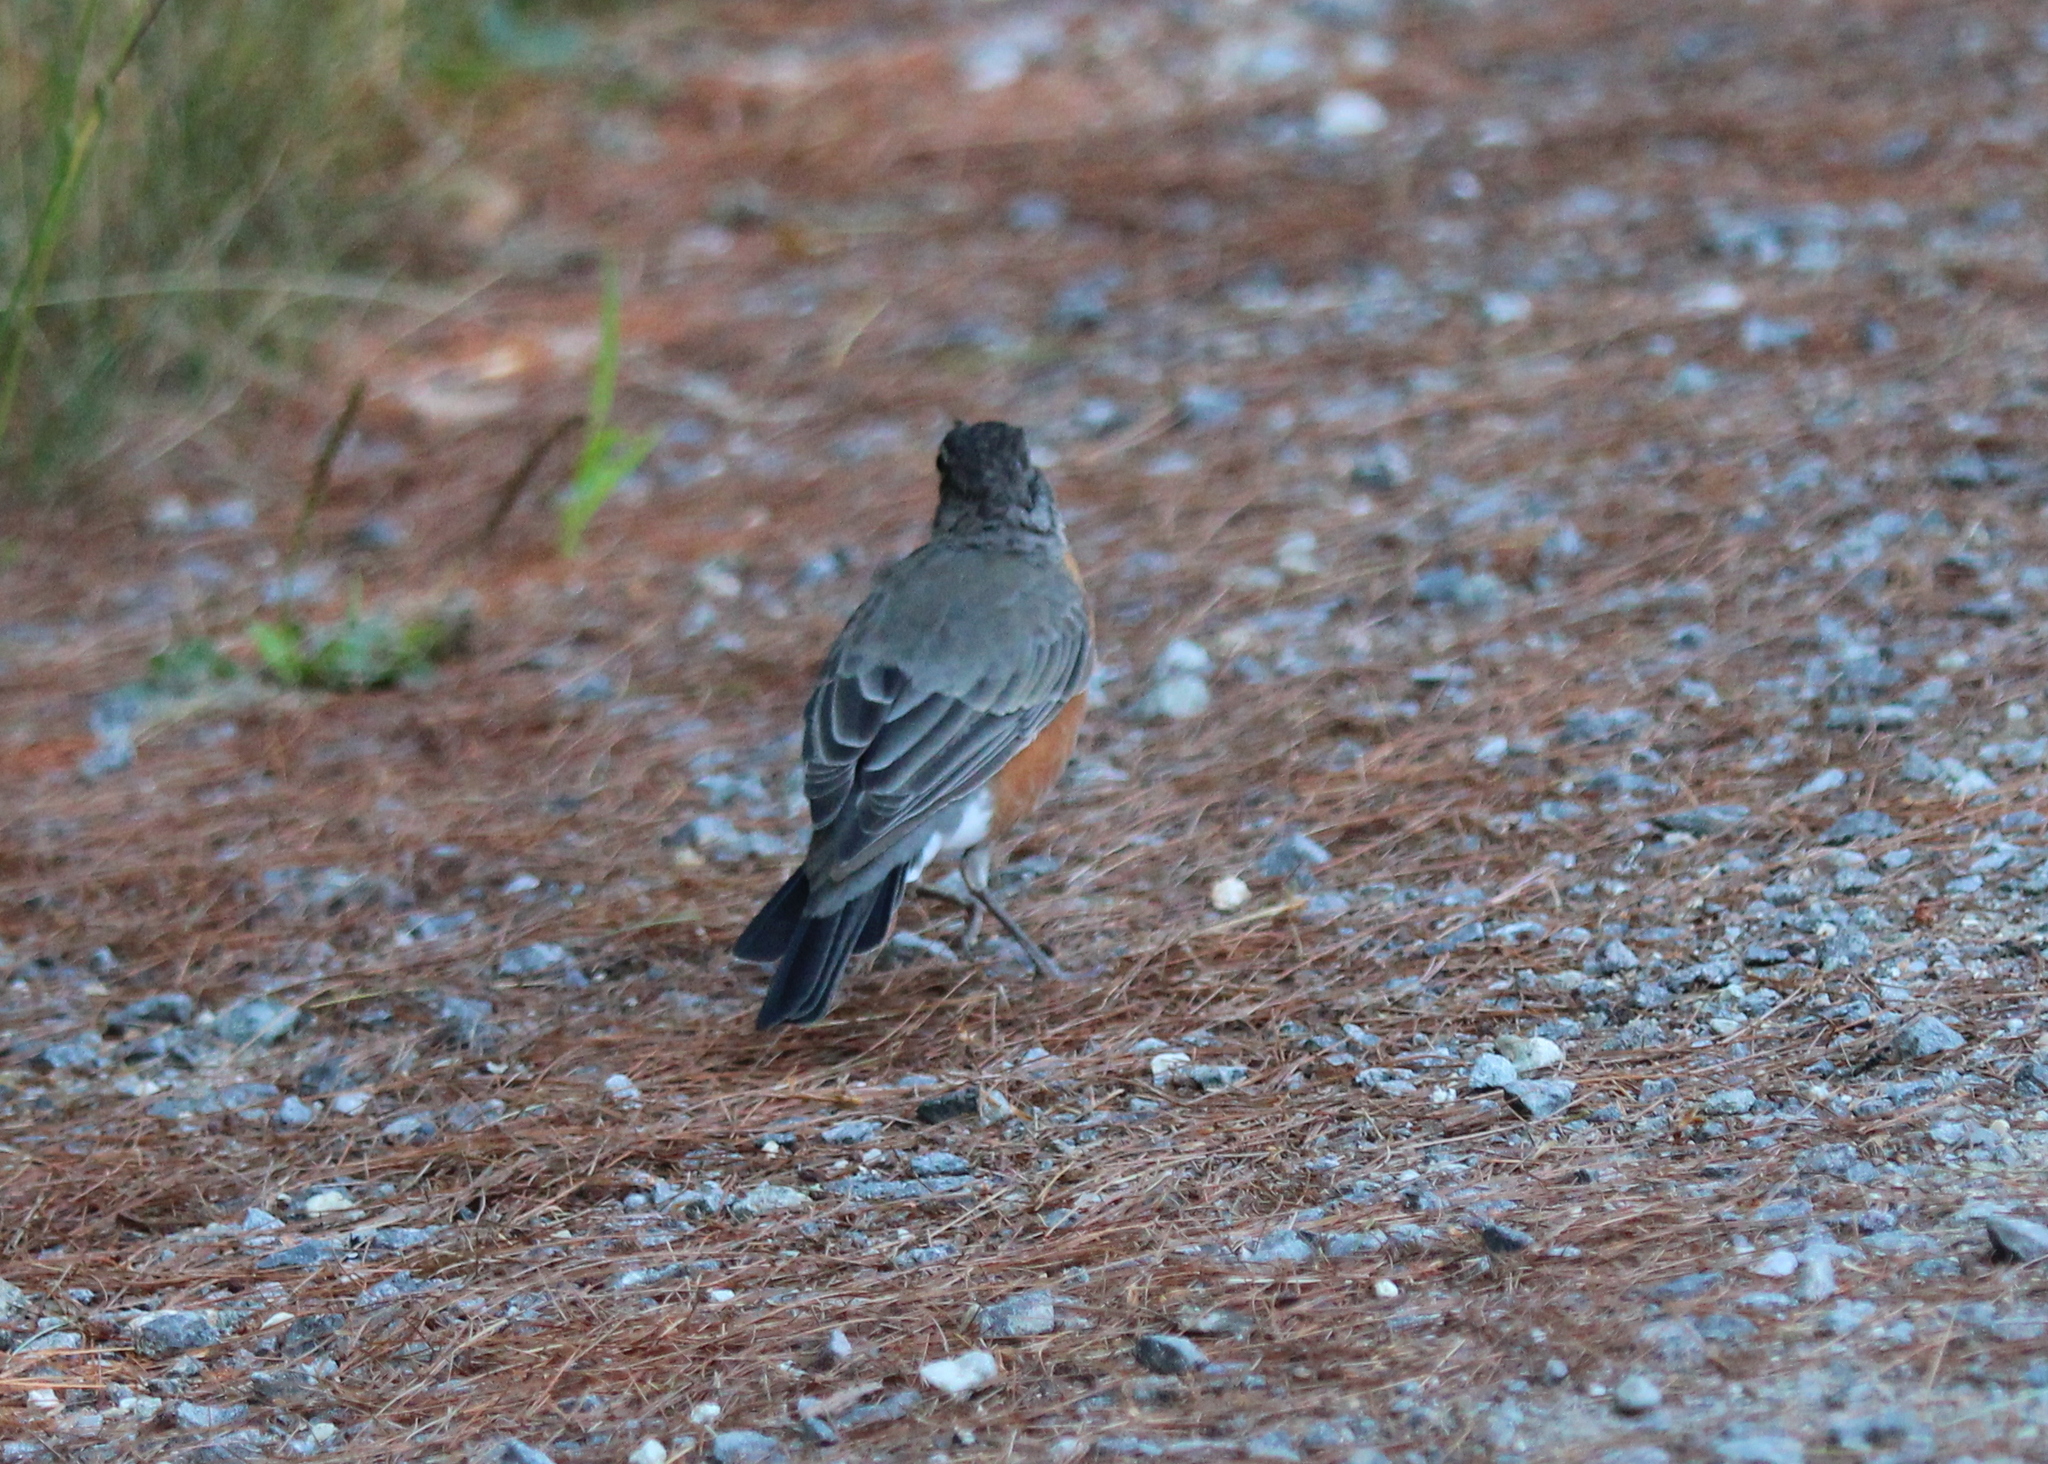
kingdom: Animalia
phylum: Chordata
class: Aves
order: Passeriformes
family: Turdidae
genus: Turdus
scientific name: Turdus migratorius
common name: American robin
